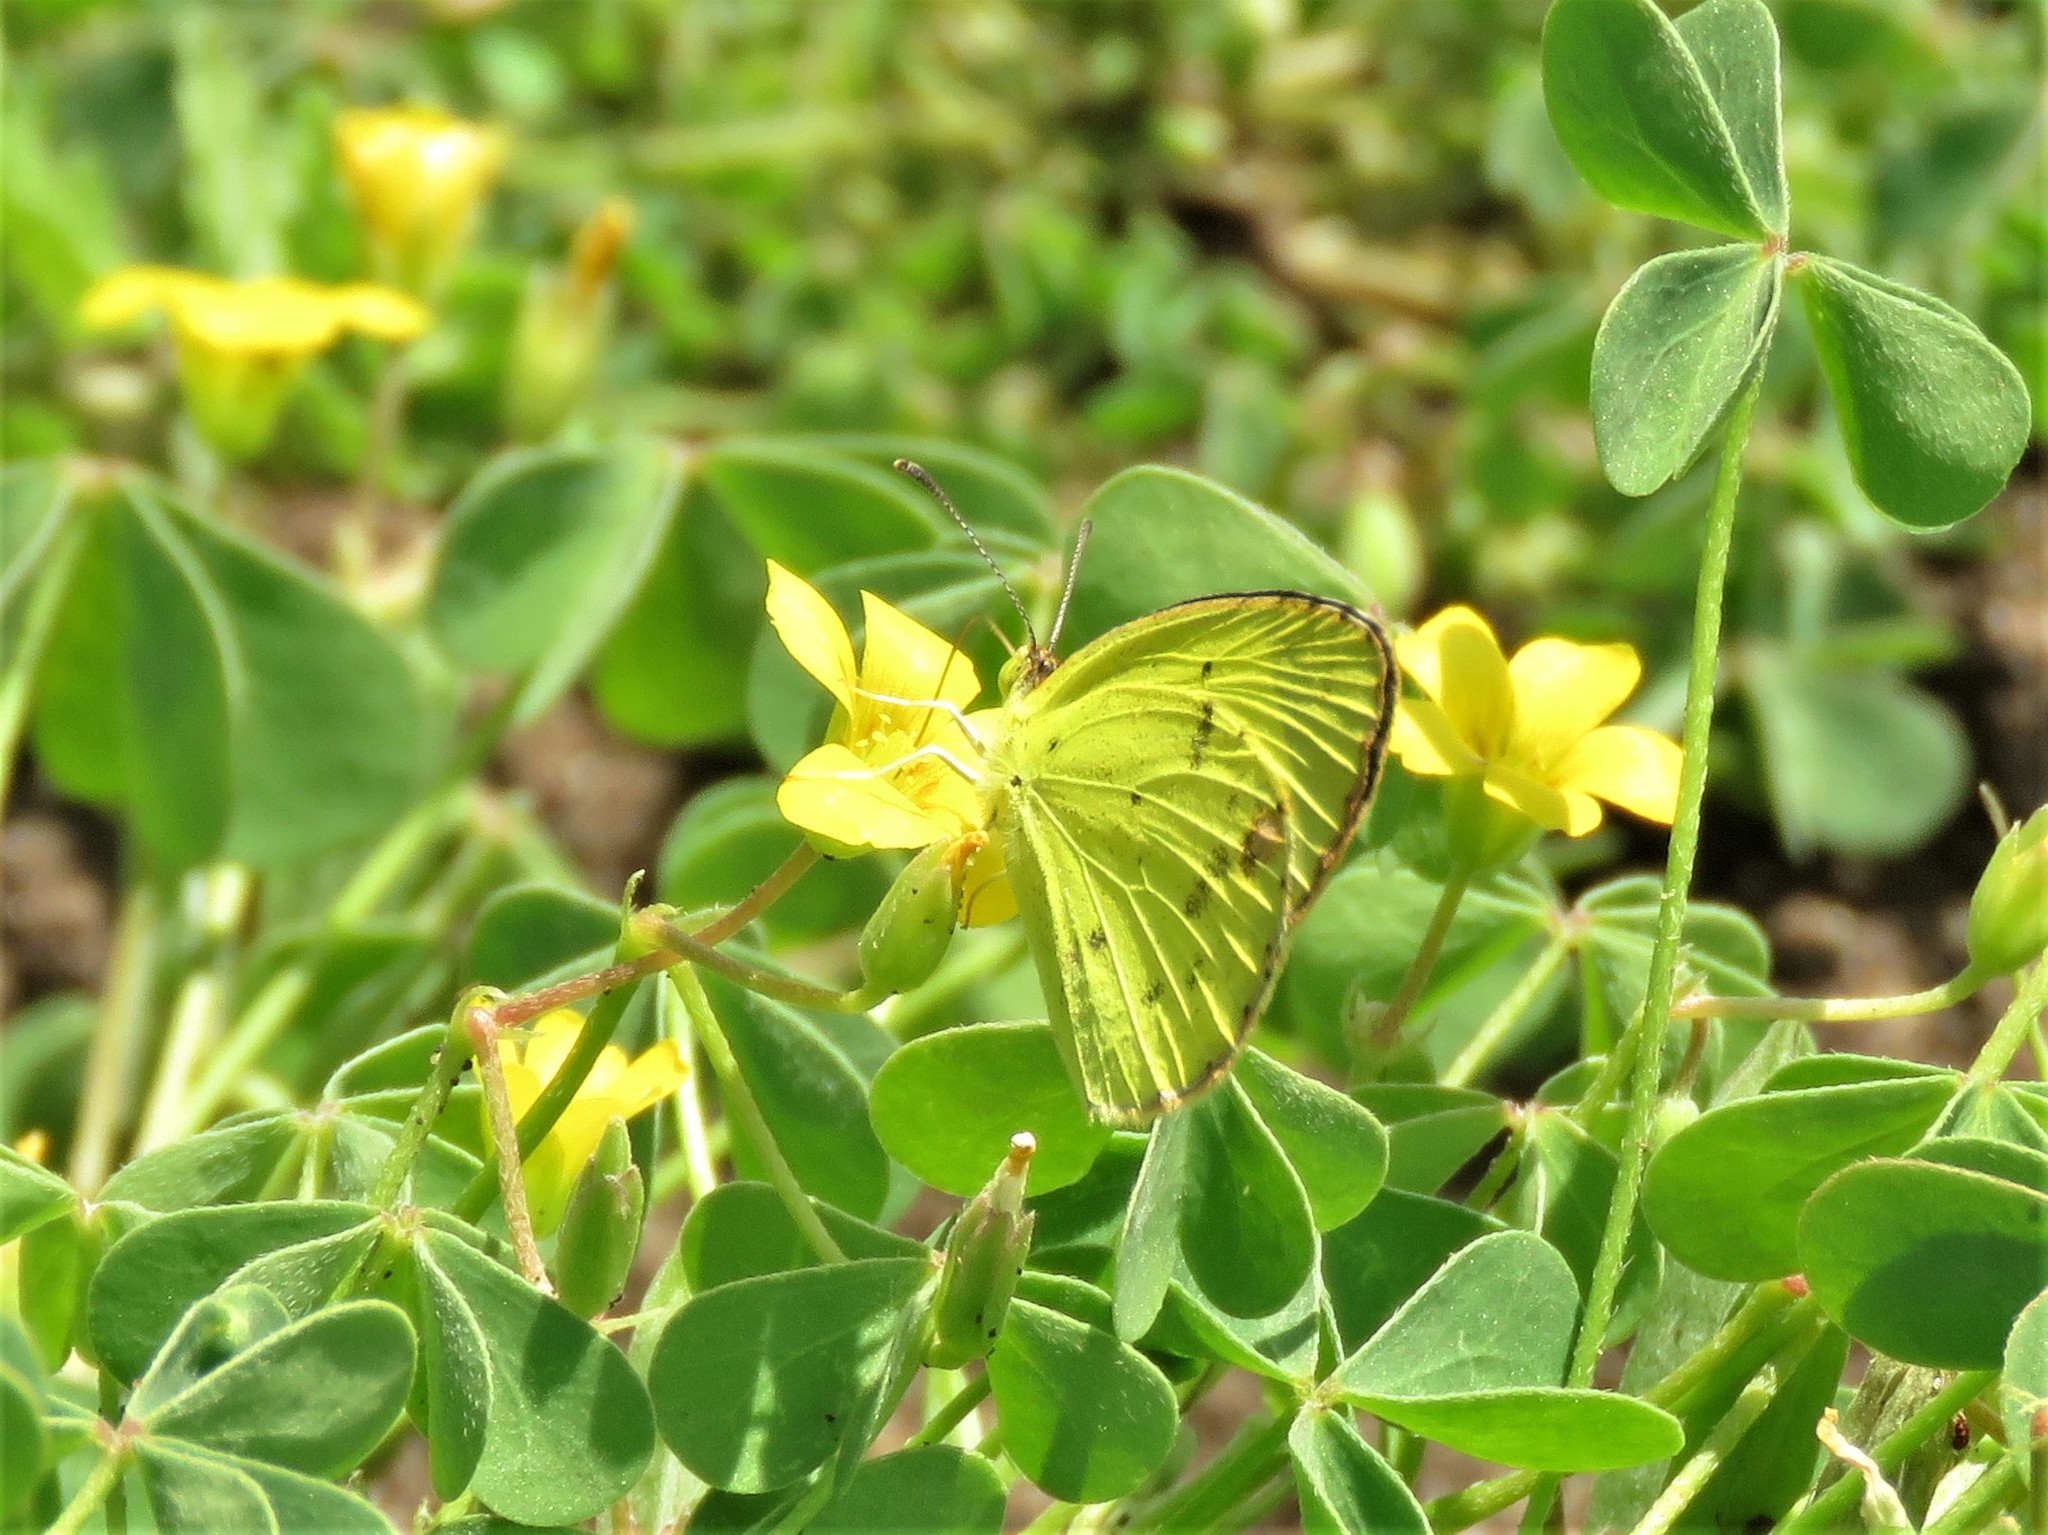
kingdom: Animalia
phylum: Arthropoda
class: Insecta
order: Lepidoptera
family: Pieridae
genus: Pyrisitia
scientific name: Pyrisitia lisa
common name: Little yellow
